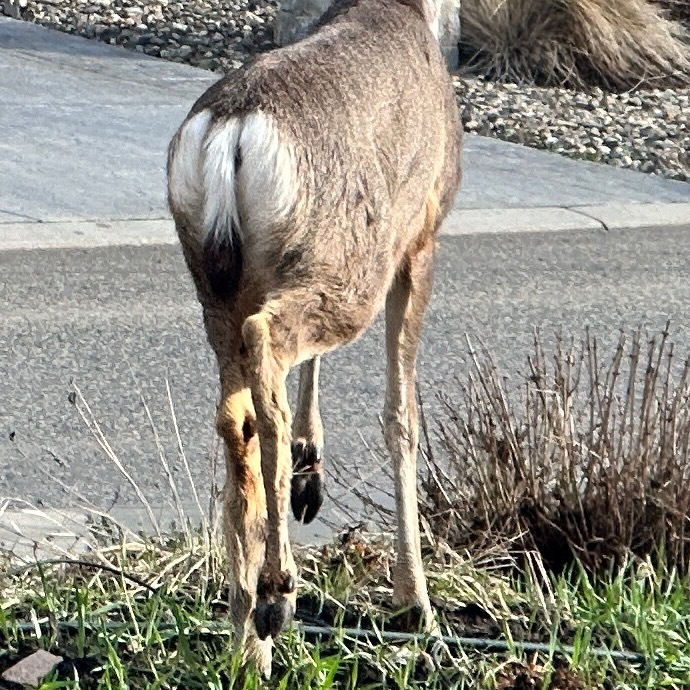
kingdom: Animalia
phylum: Chordata
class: Mammalia
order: Artiodactyla
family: Cervidae
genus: Odocoileus
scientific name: Odocoileus hemionus
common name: Mule deer
